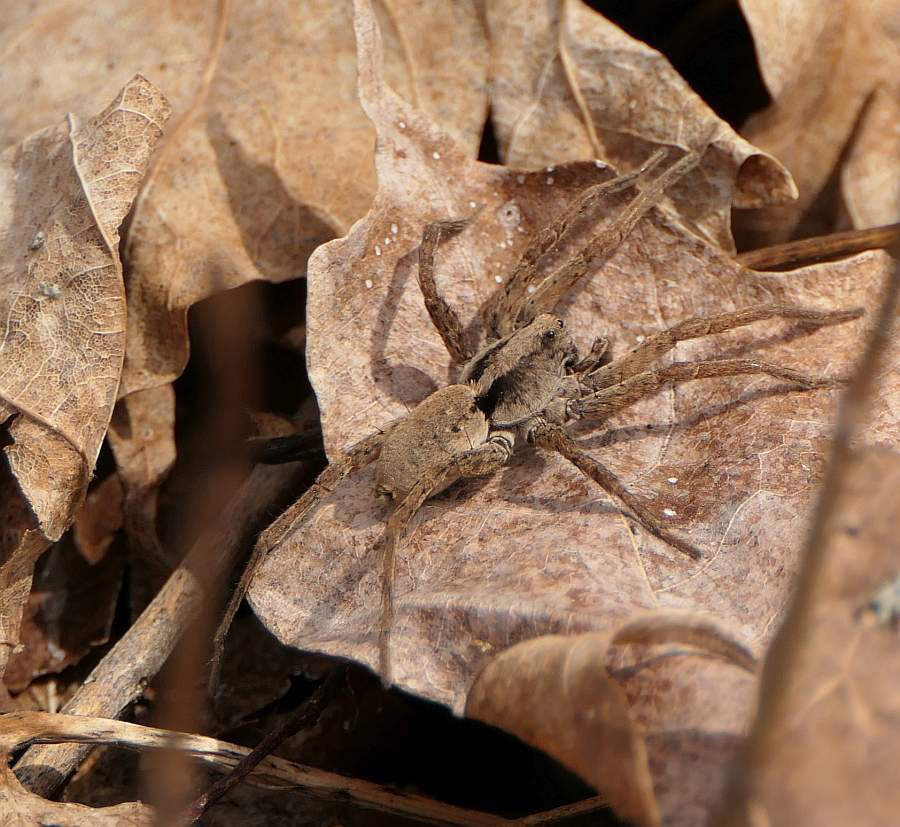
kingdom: Animalia
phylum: Arthropoda
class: Arachnida
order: Araneae
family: Lycosidae
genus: Gladicosa
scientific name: Gladicosa gulosa
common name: Drumming sword wolf spider
